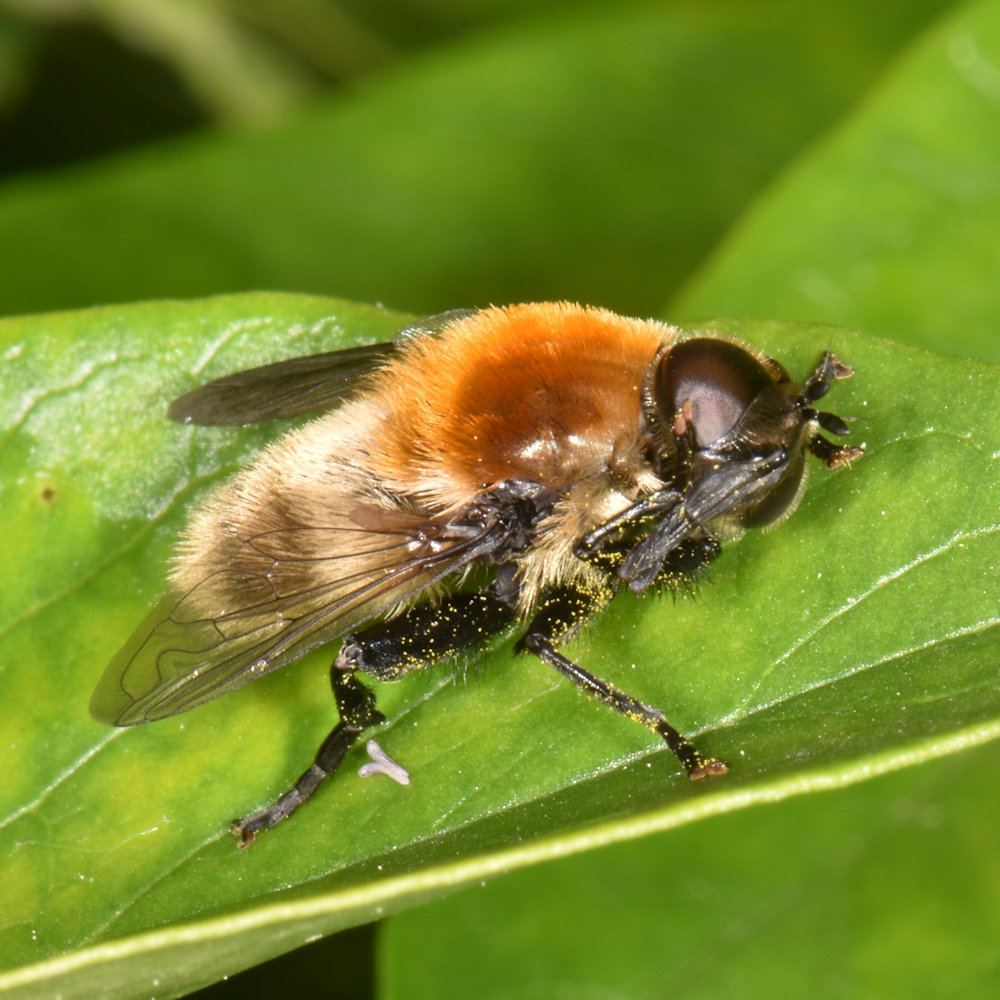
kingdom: Animalia
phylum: Arthropoda
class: Insecta
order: Diptera
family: Syrphidae
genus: Merodon
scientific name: Merodon equestris
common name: Greater bulb-fly
